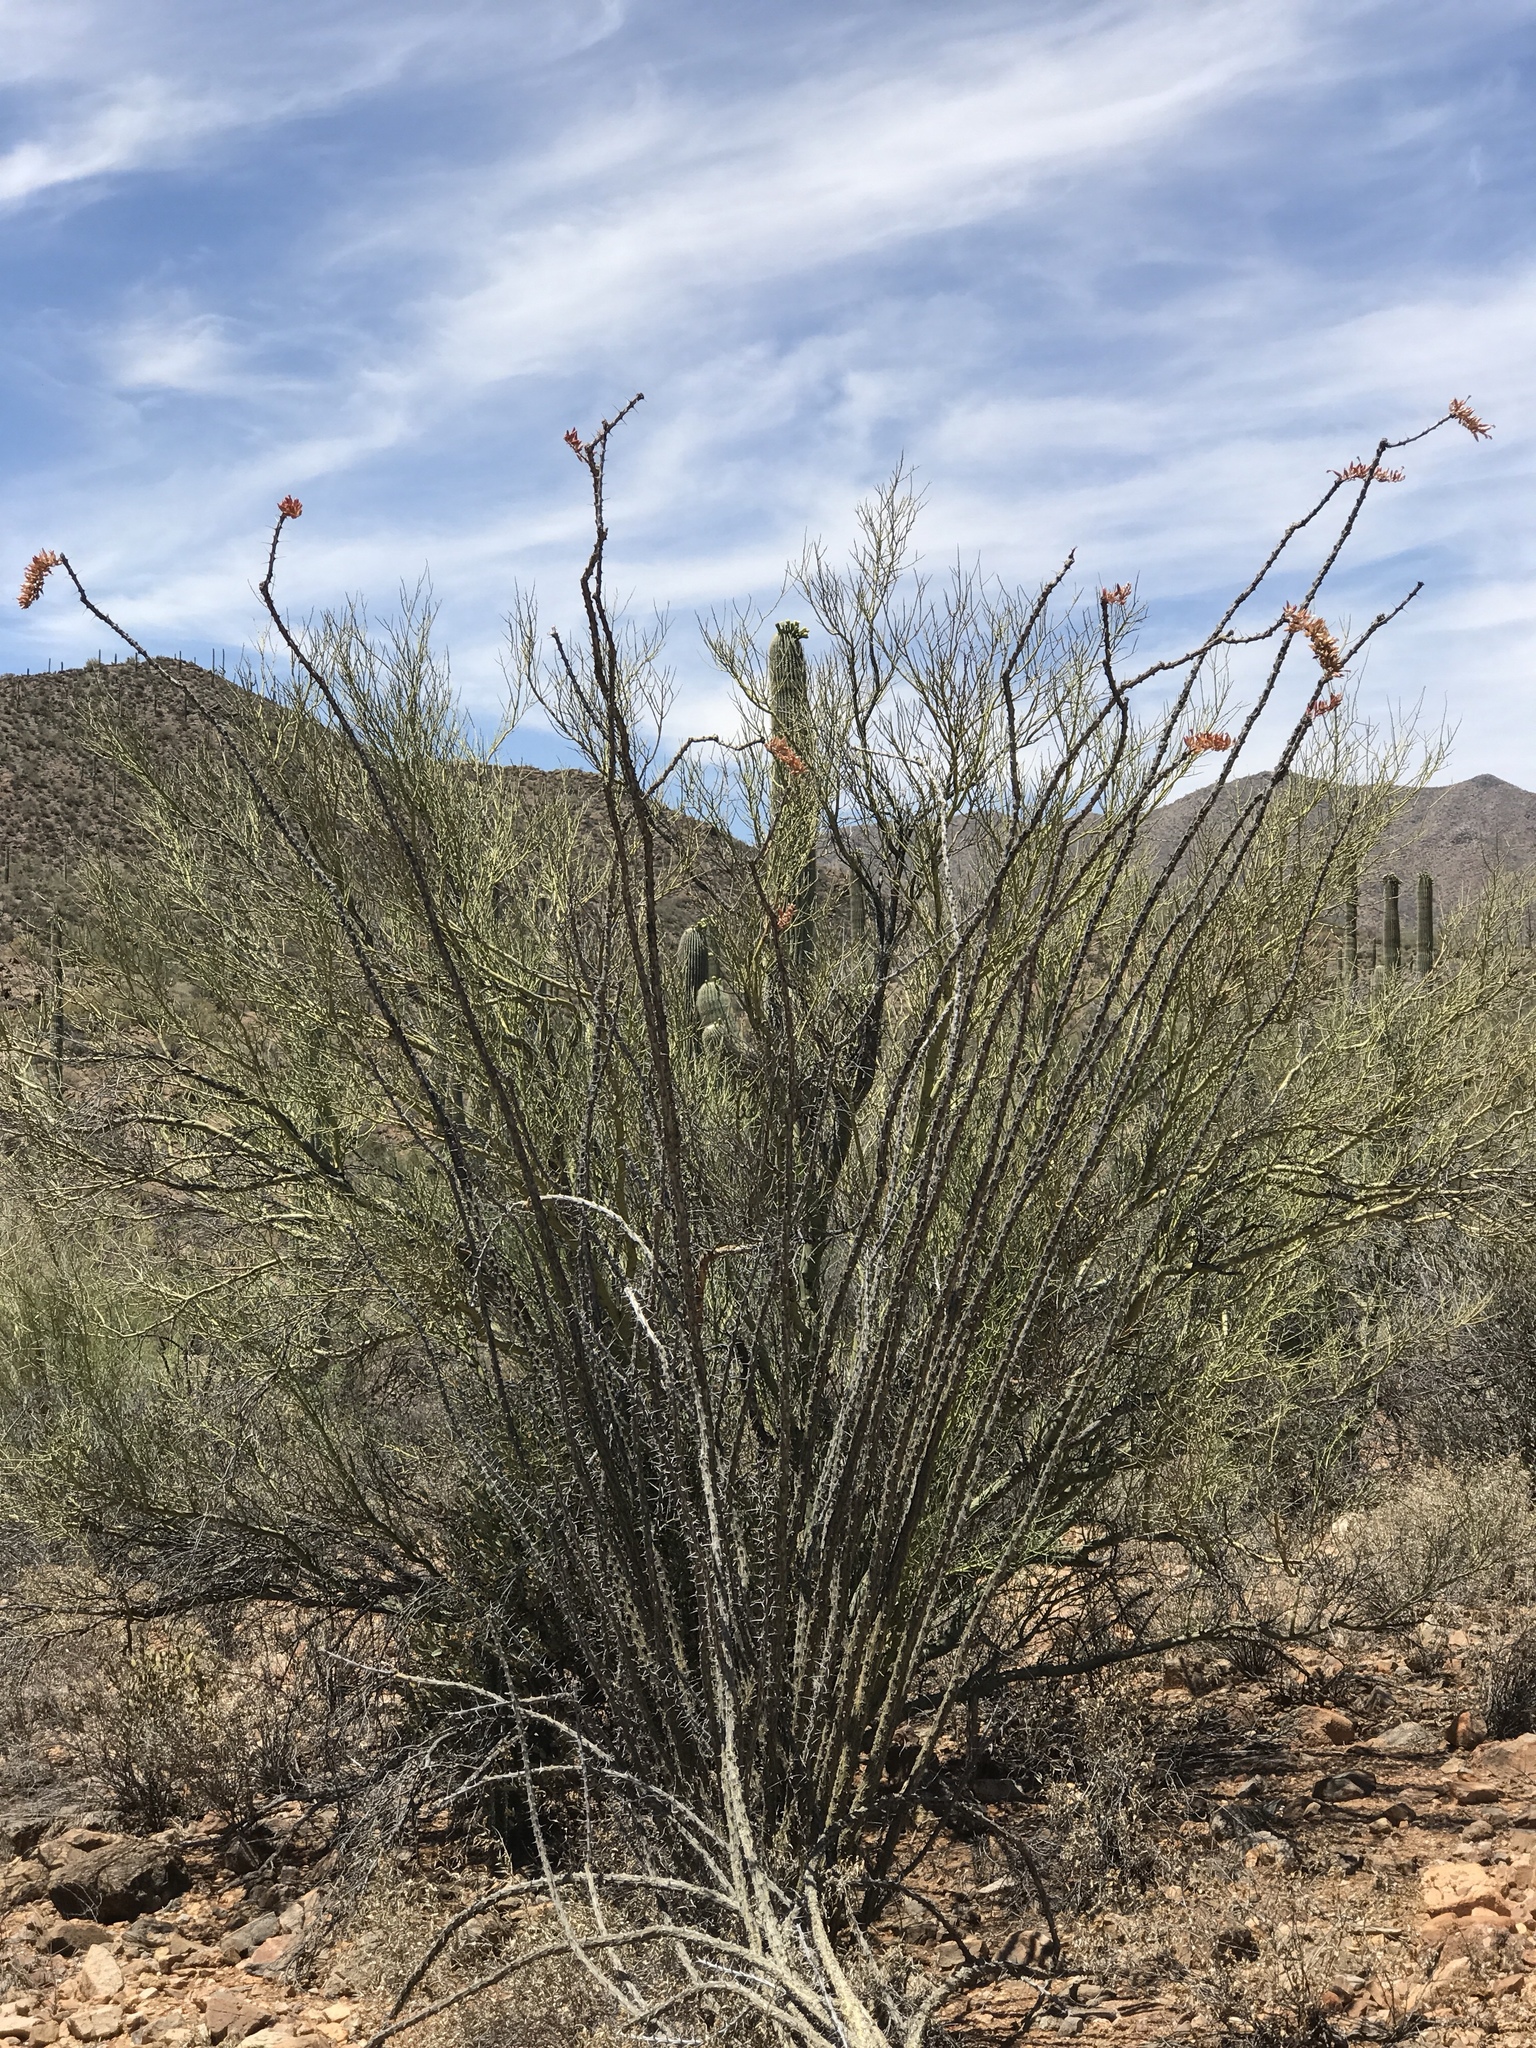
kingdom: Plantae
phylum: Tracheophyta
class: Magnoliopsida
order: Ericales
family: Fouquieriaceae
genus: Fouquieria
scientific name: Fouquieria splendens
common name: Vine-cactus
